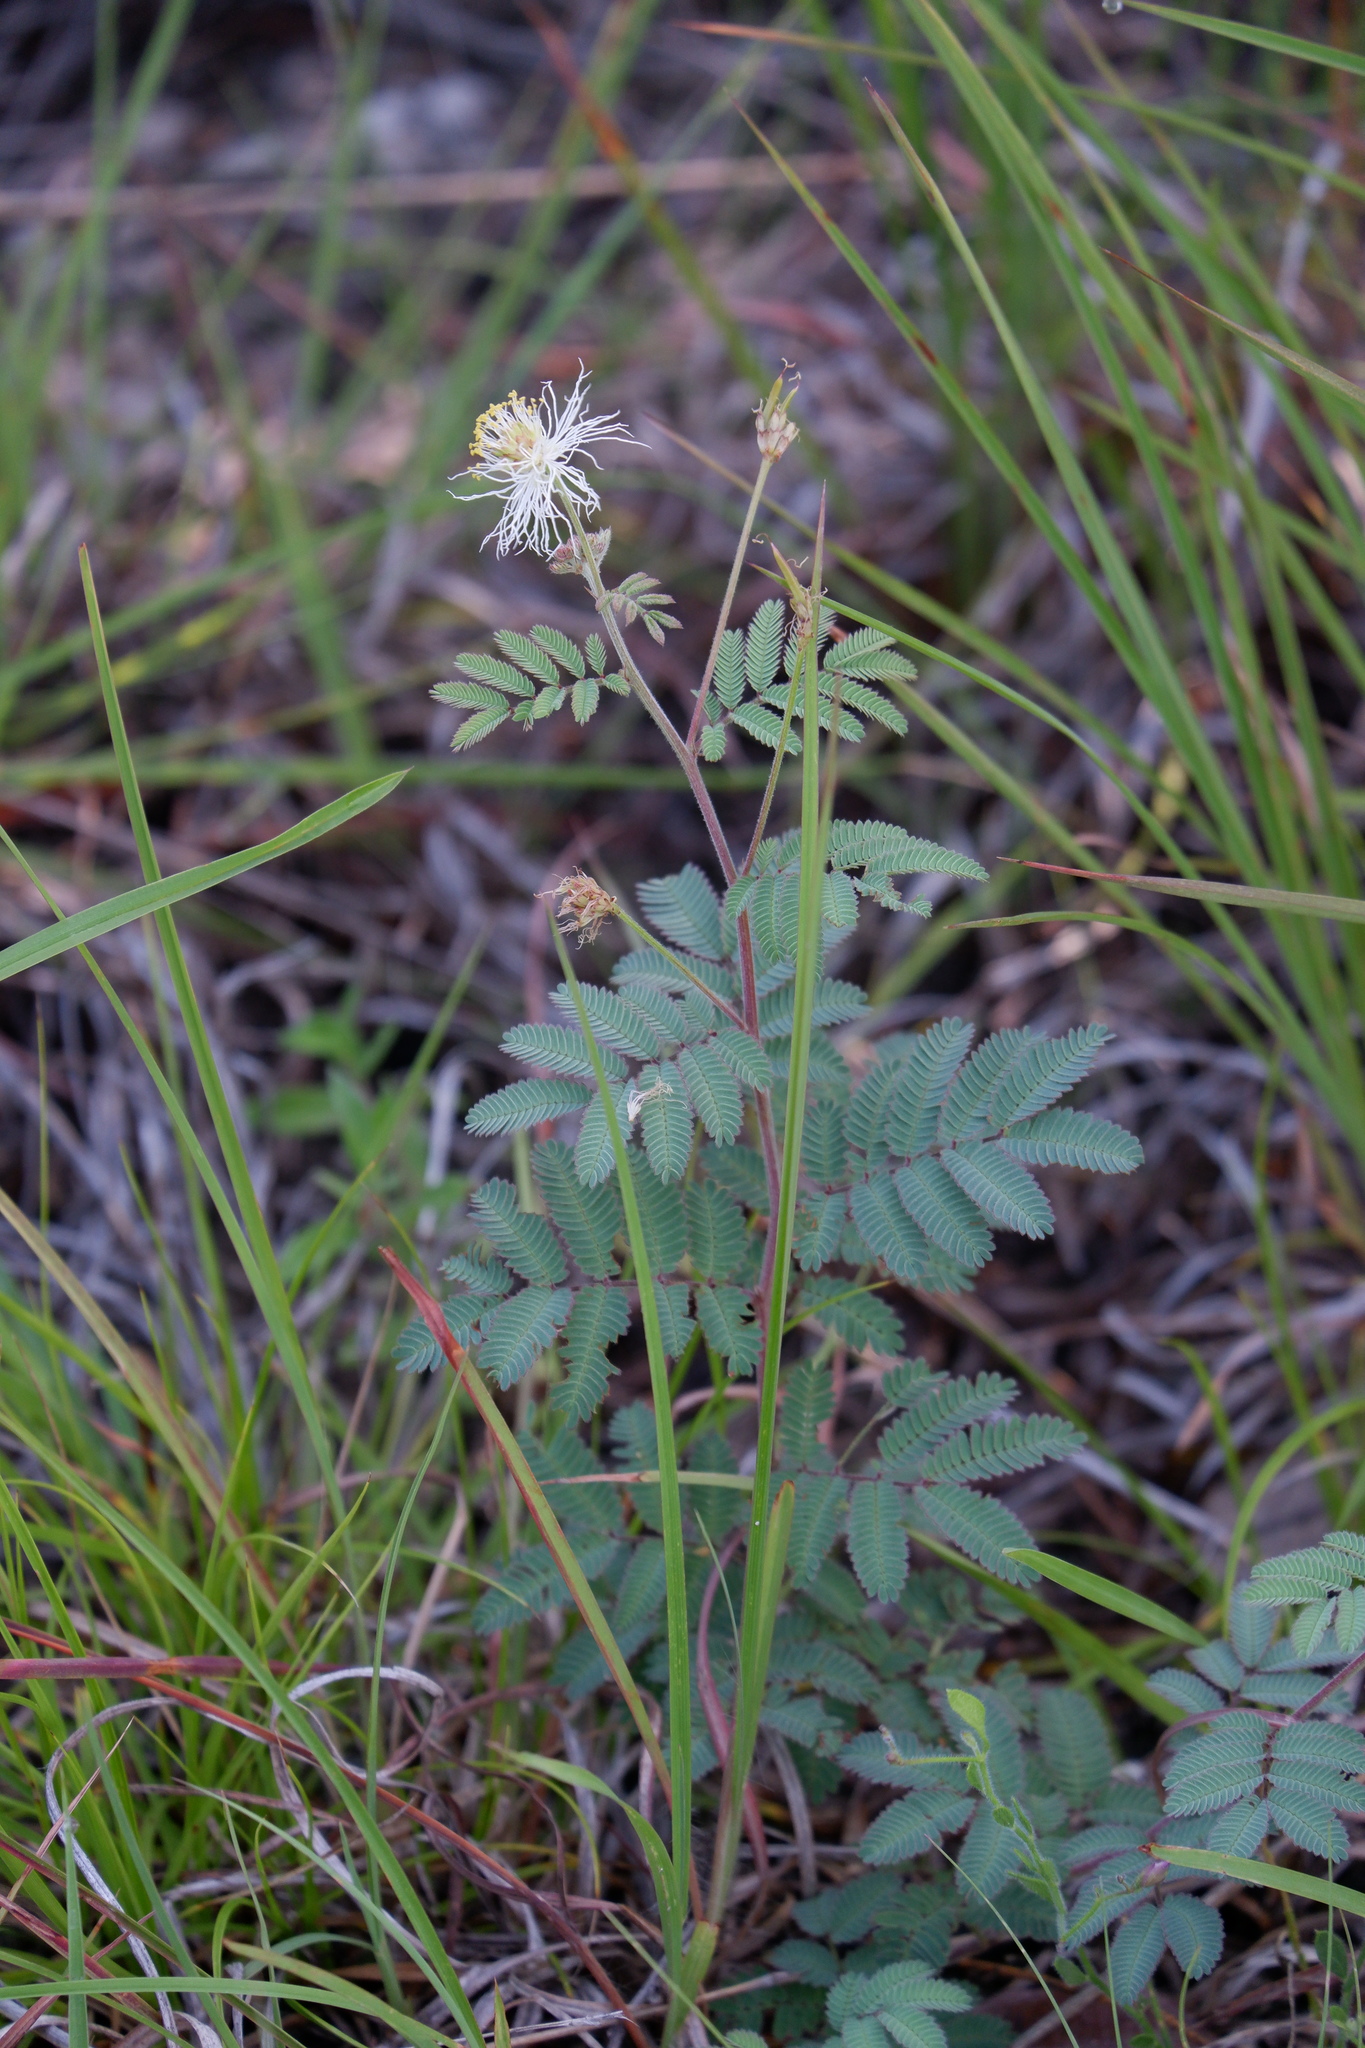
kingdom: Plantae
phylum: Tracheophyta
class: Magnoliopsida
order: Fabales
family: Fabaceae
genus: Desmanthus
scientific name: Desmanthus velutinus
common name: Velvet bundle-flower
